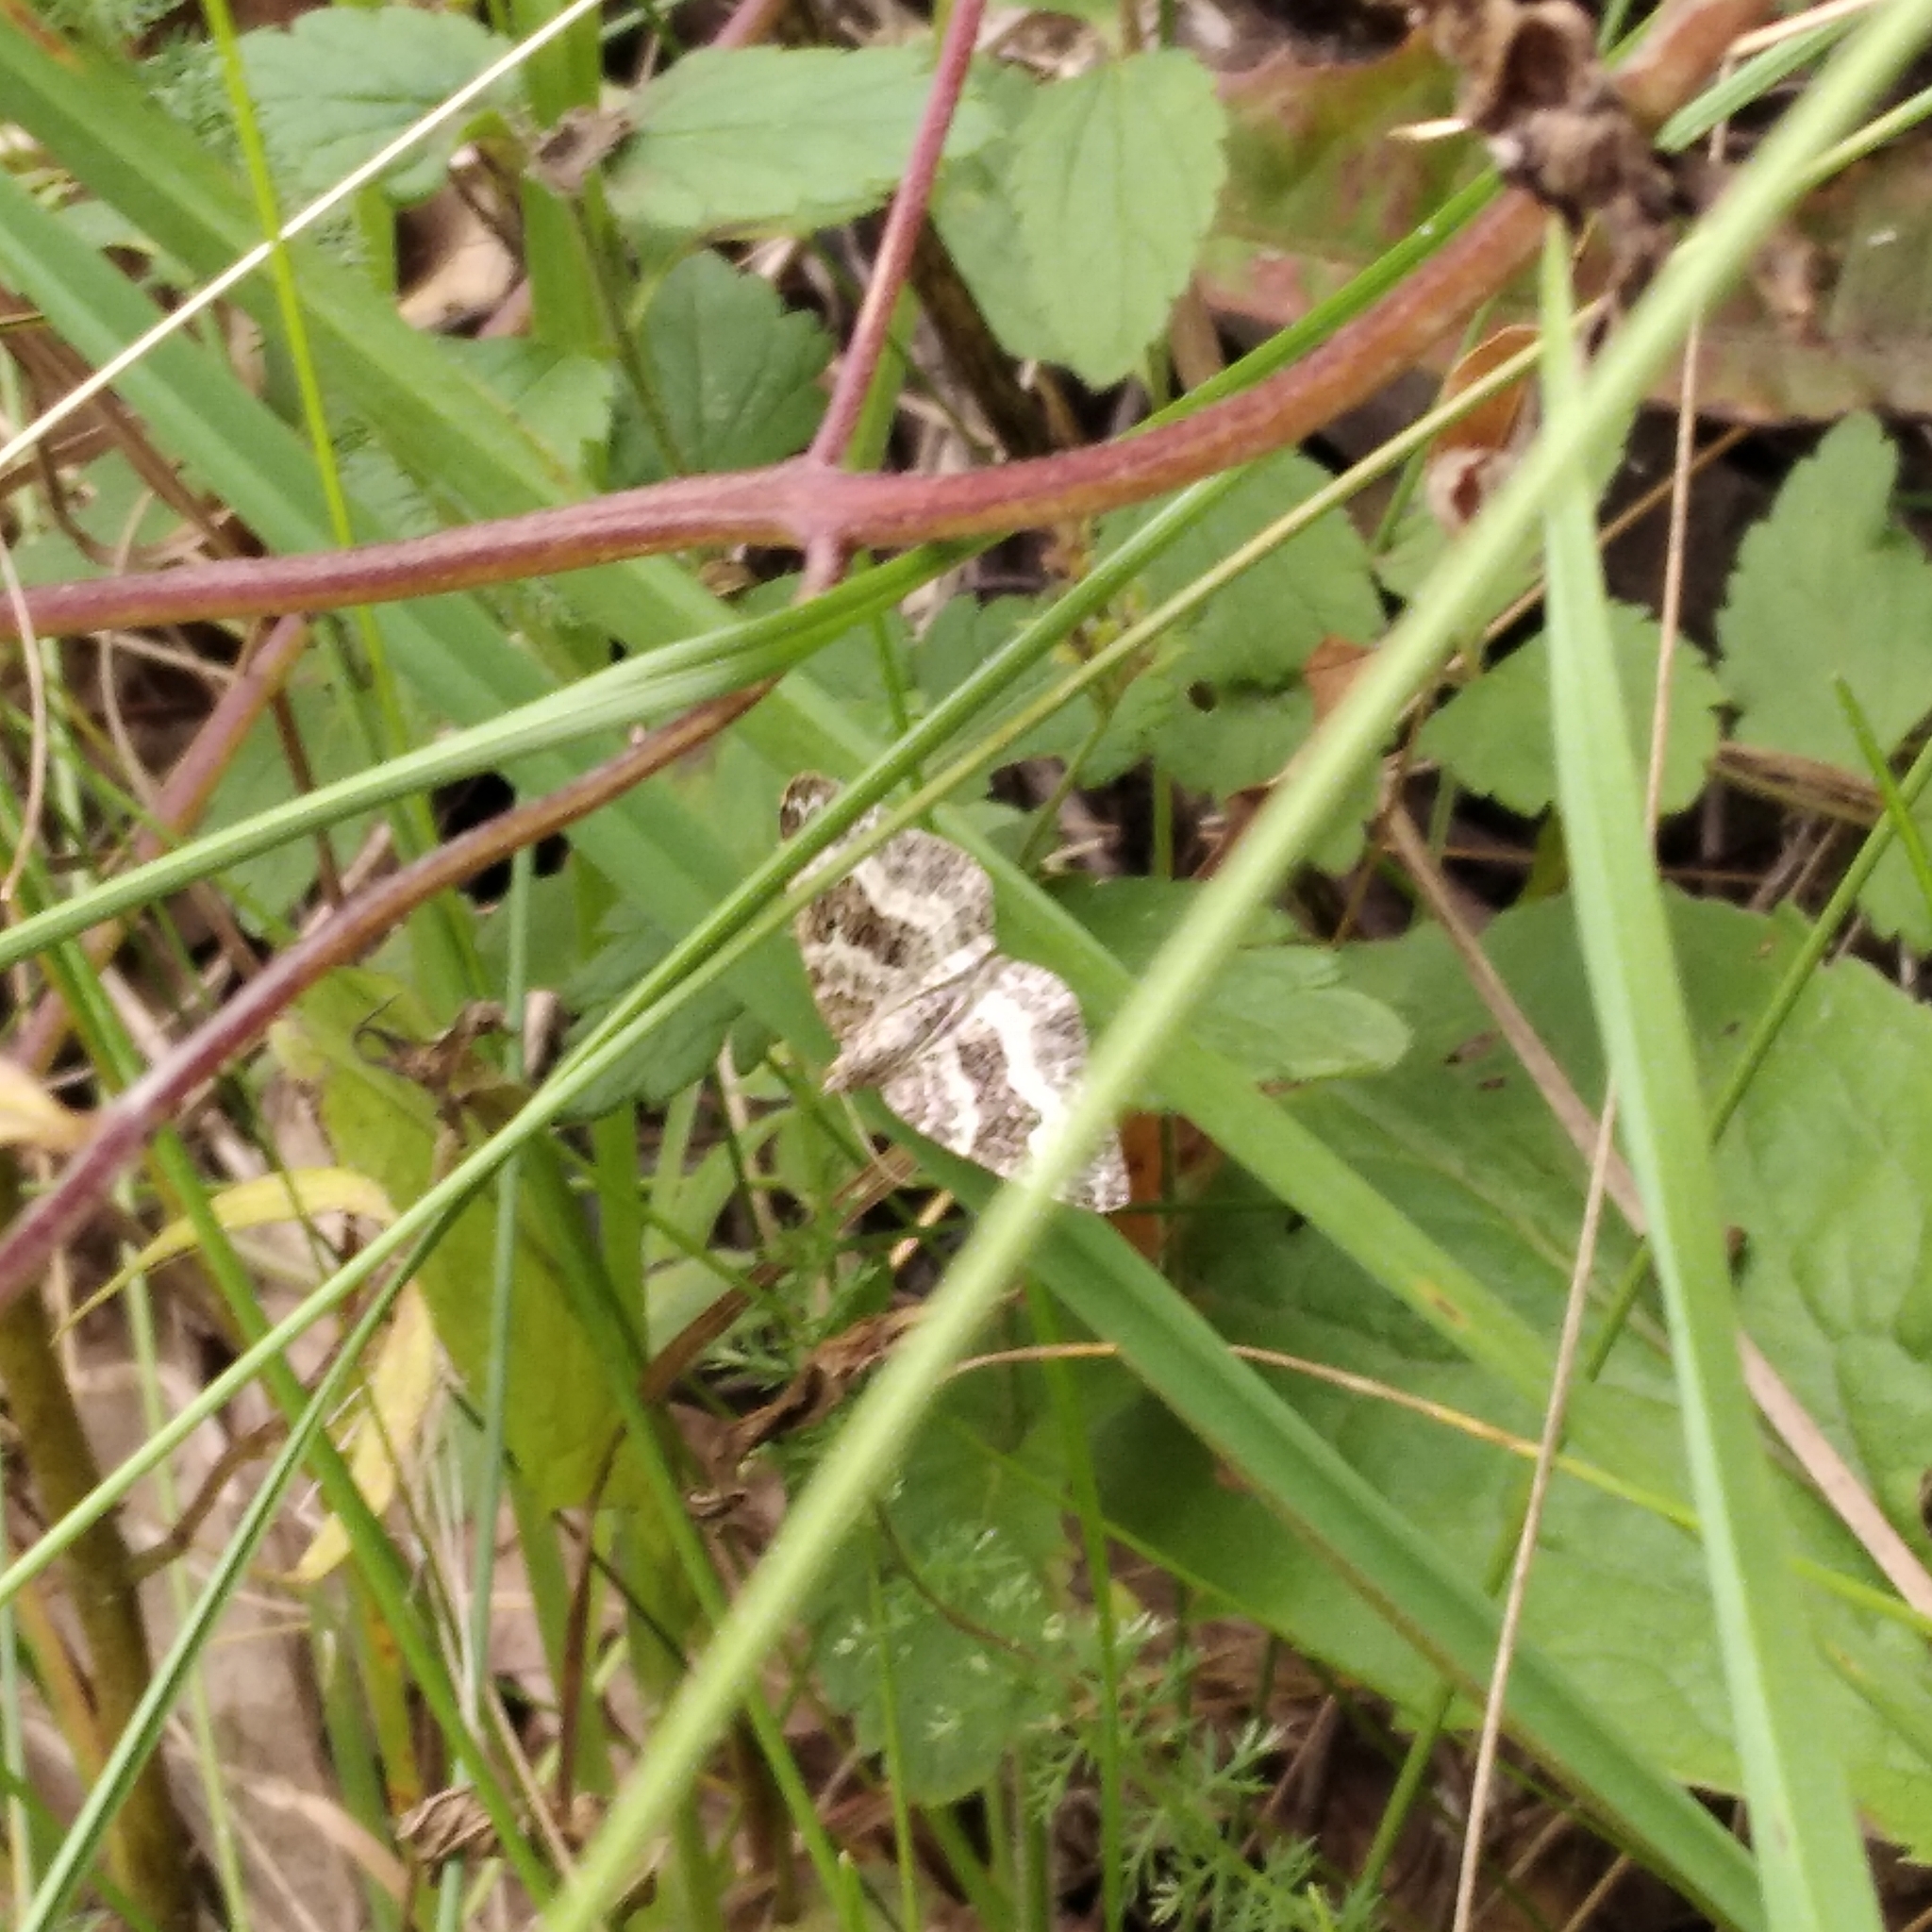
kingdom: Animalia
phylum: Arthropoda
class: Insecta
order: Lepidoptera
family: Geometridae
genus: Epirrhoe
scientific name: Epirrhoe alternata
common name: Common carpet
